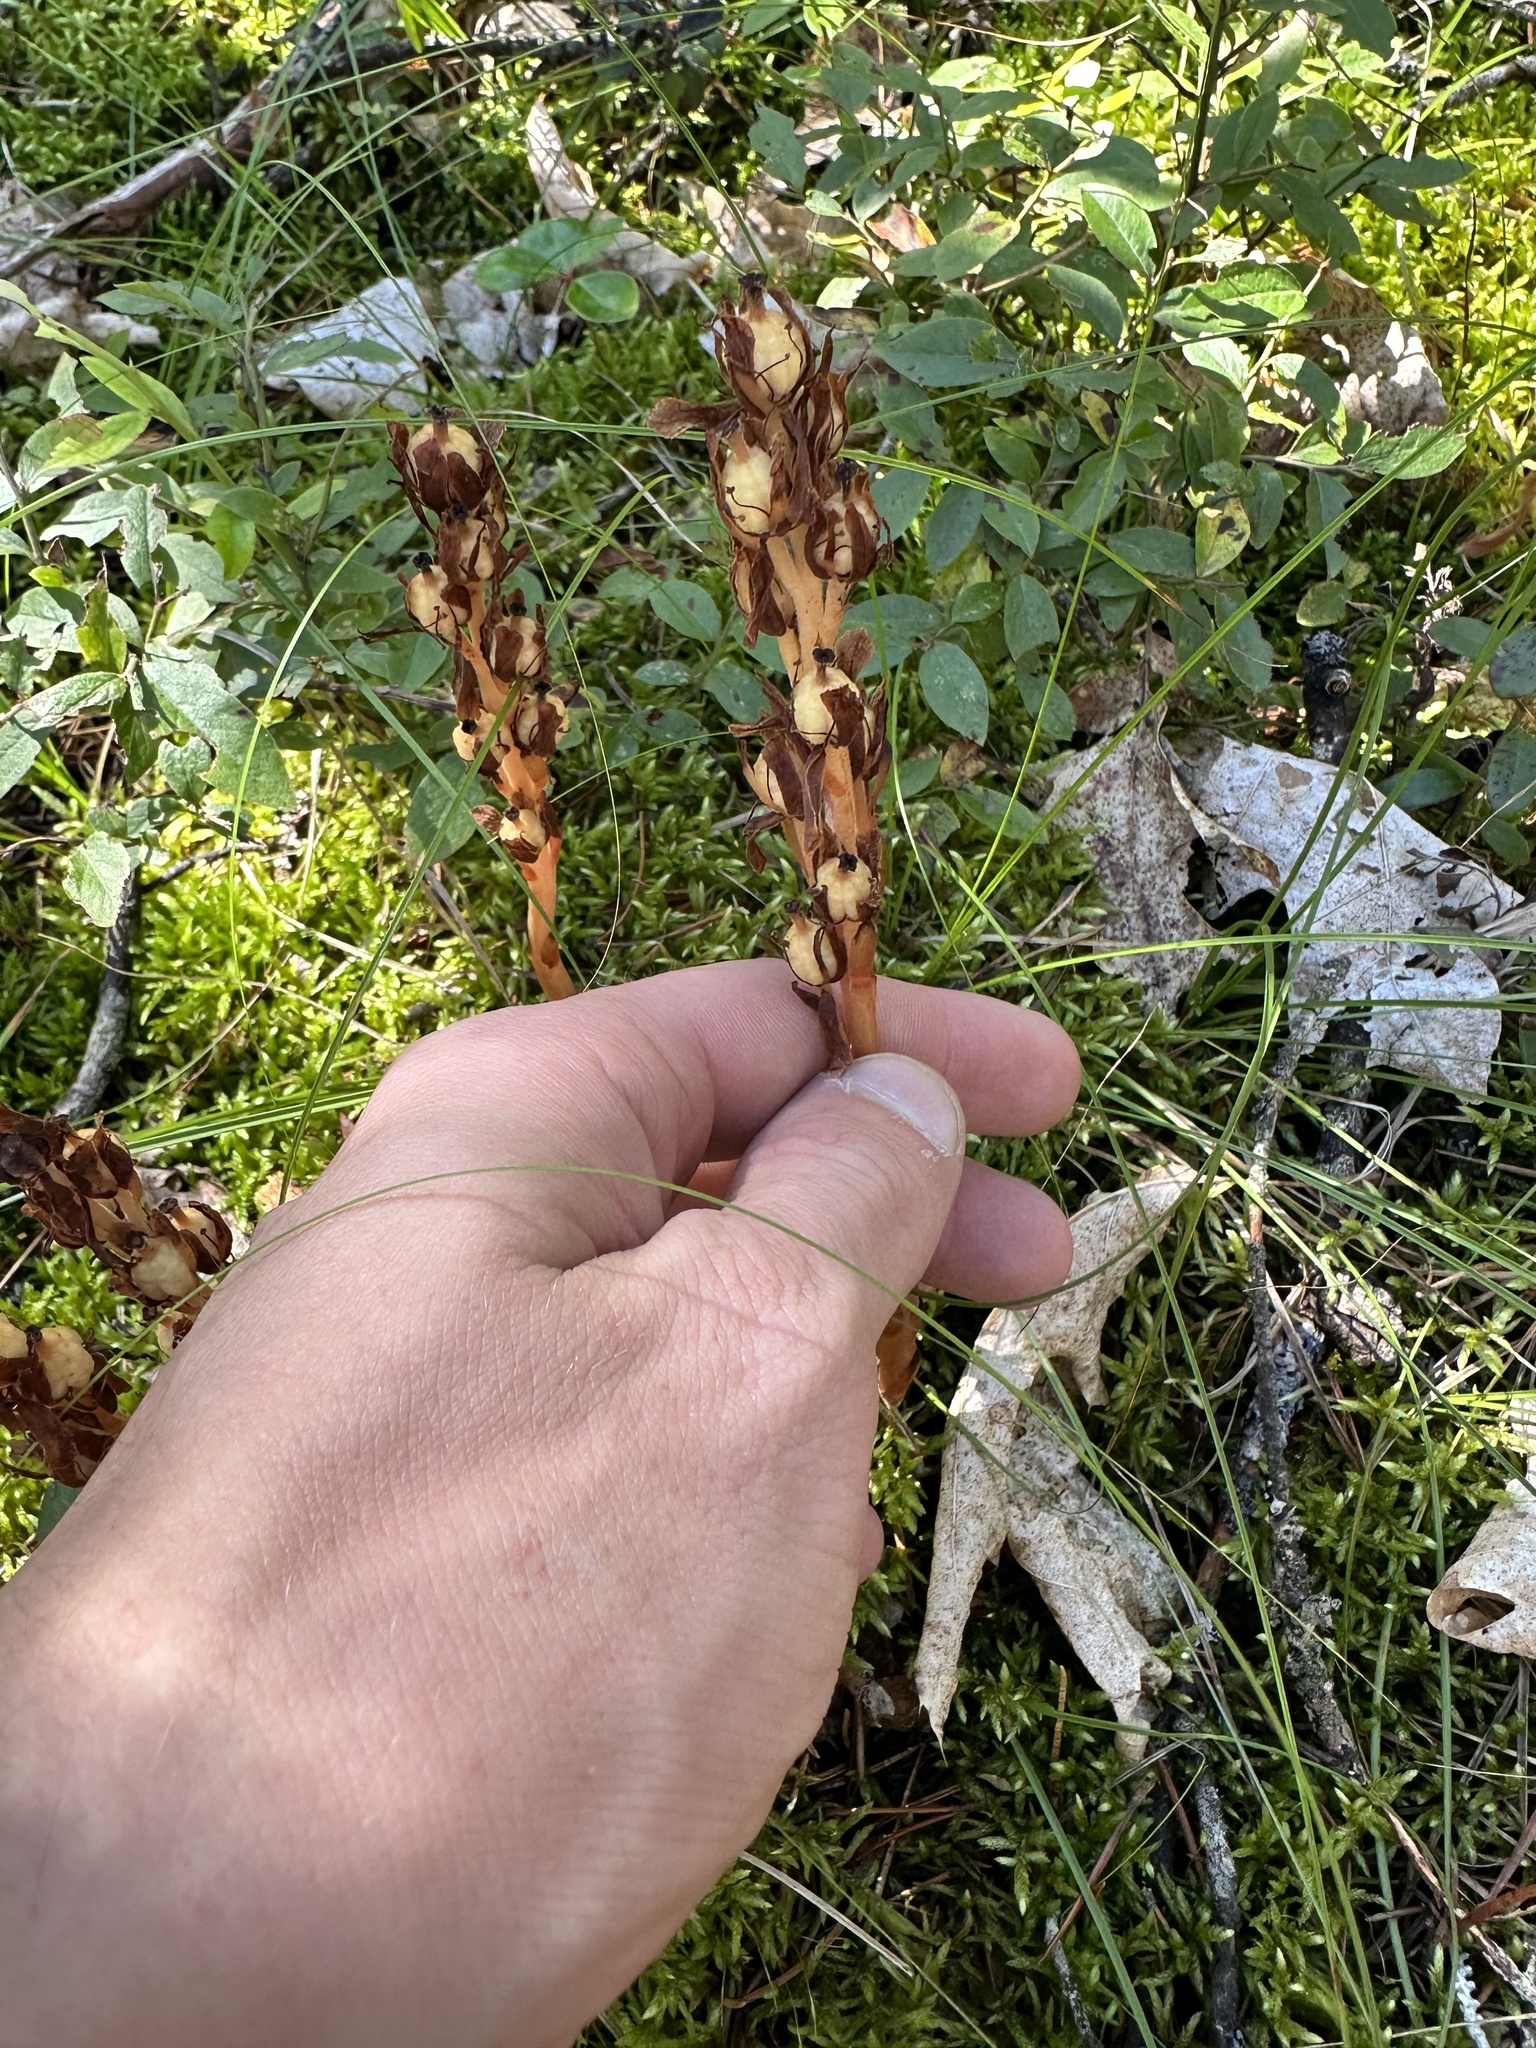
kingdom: Plantae
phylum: Tracheophyta
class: Magnoliopsida
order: Ericales
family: Ericaceae
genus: Hypopitys
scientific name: Hypopitys monotropa
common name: Yellow bird's-nest
